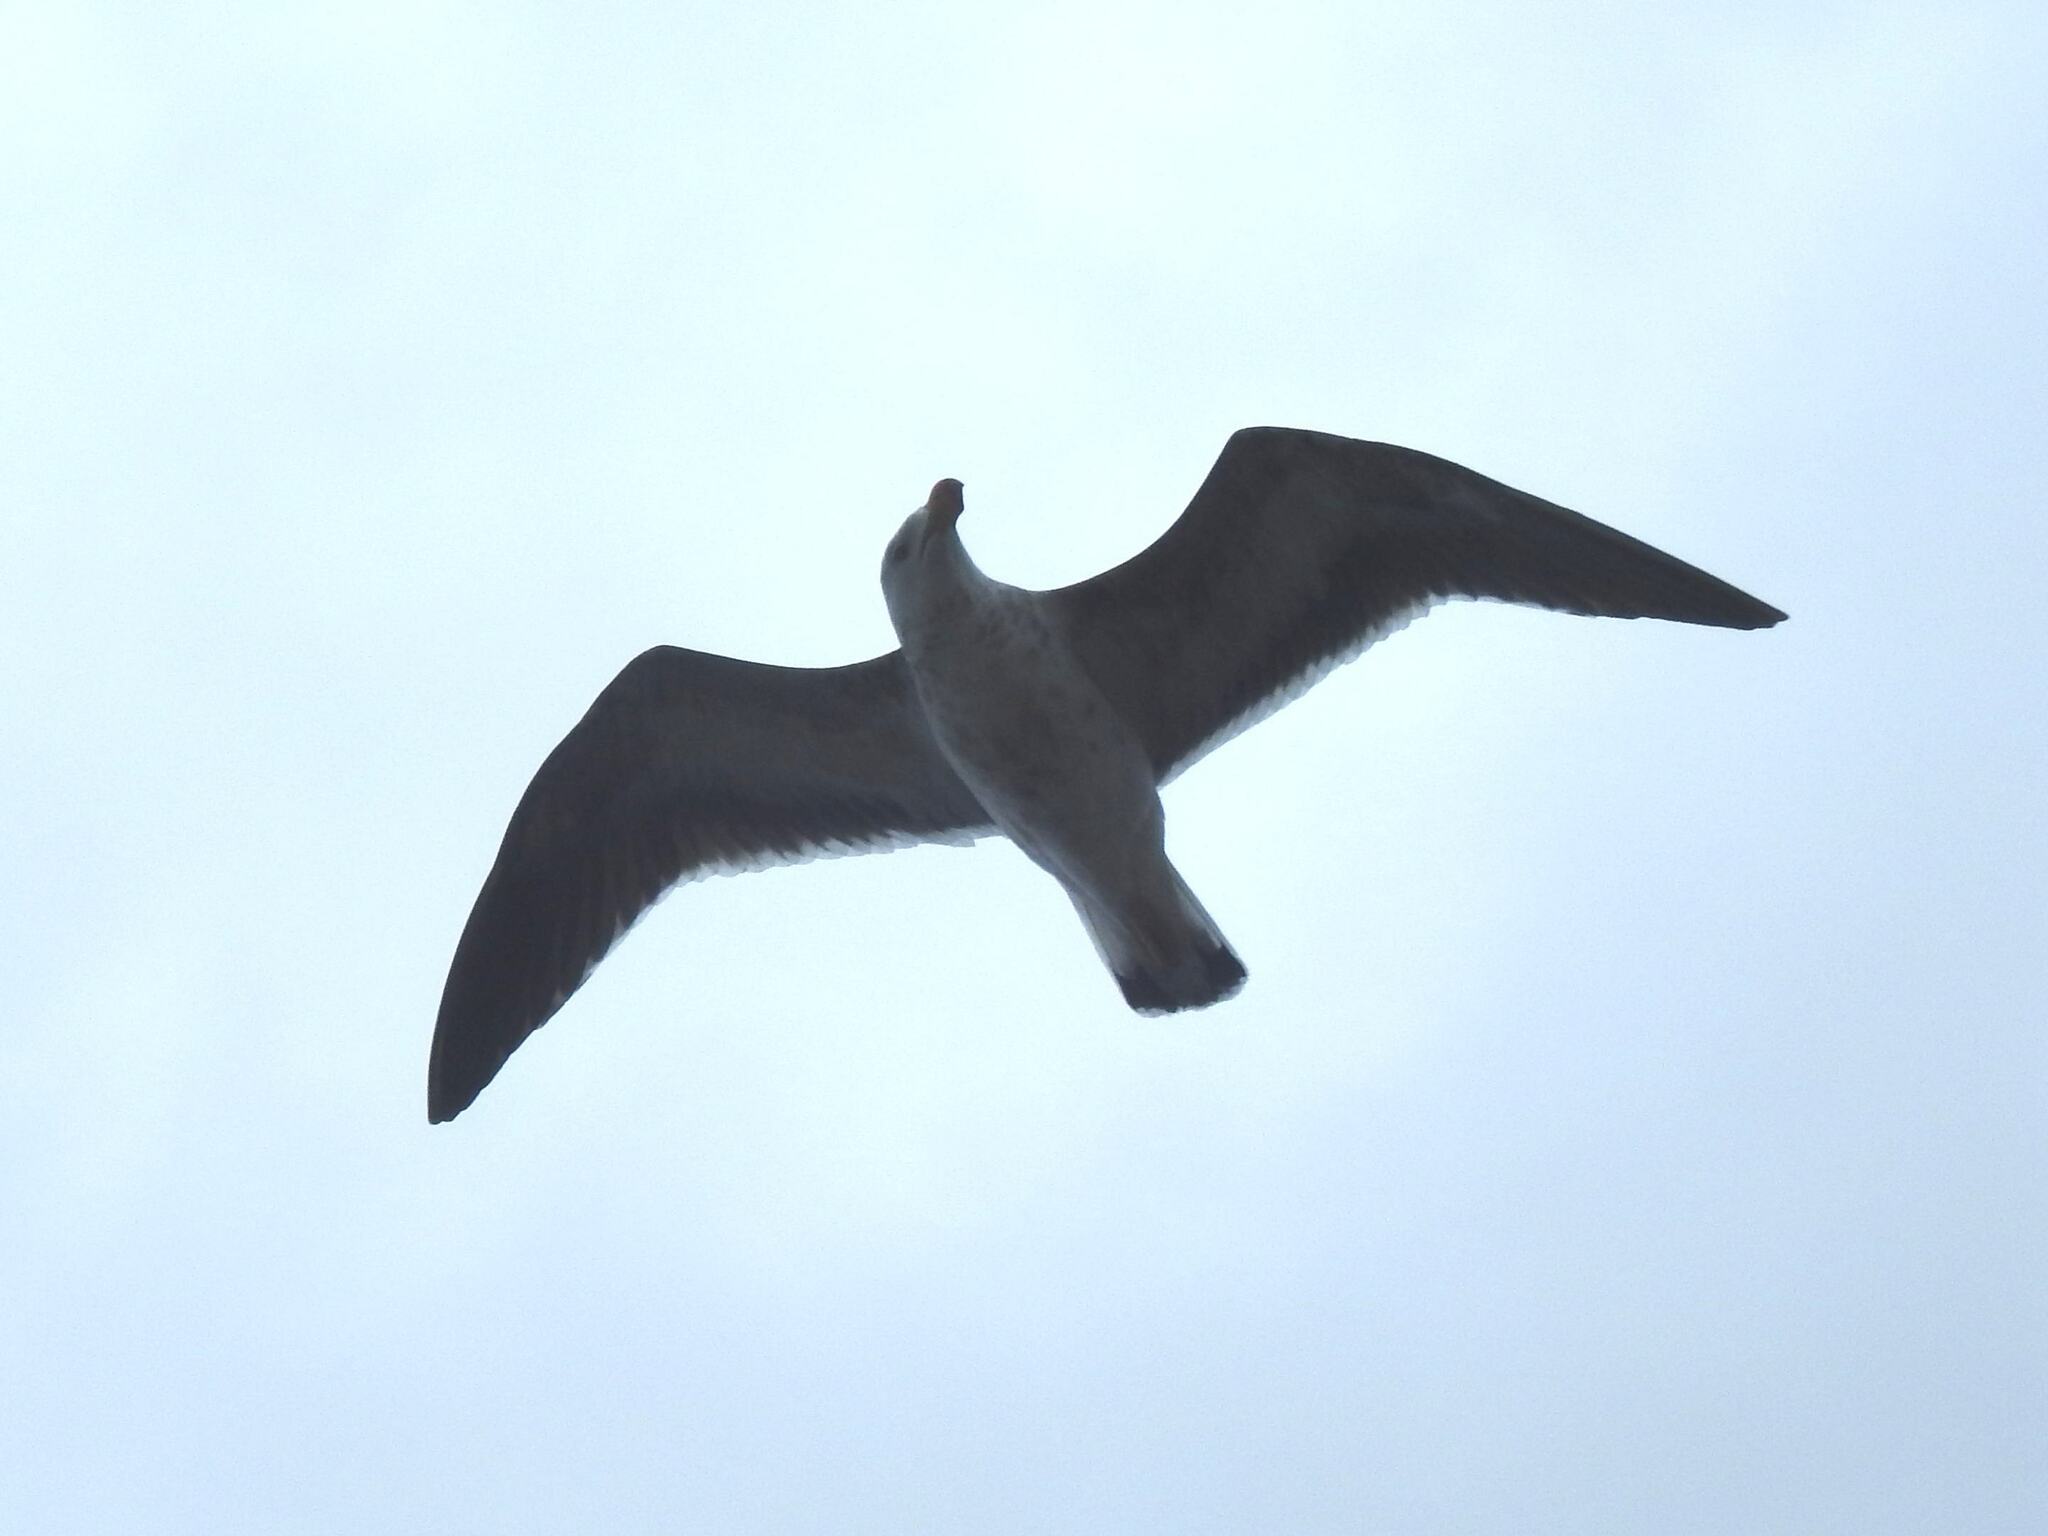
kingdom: Animalia
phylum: Chordata
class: Aves
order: Charadriiformes
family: Laridae
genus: Larus
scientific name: Larus pacificus
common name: Pacific gull
